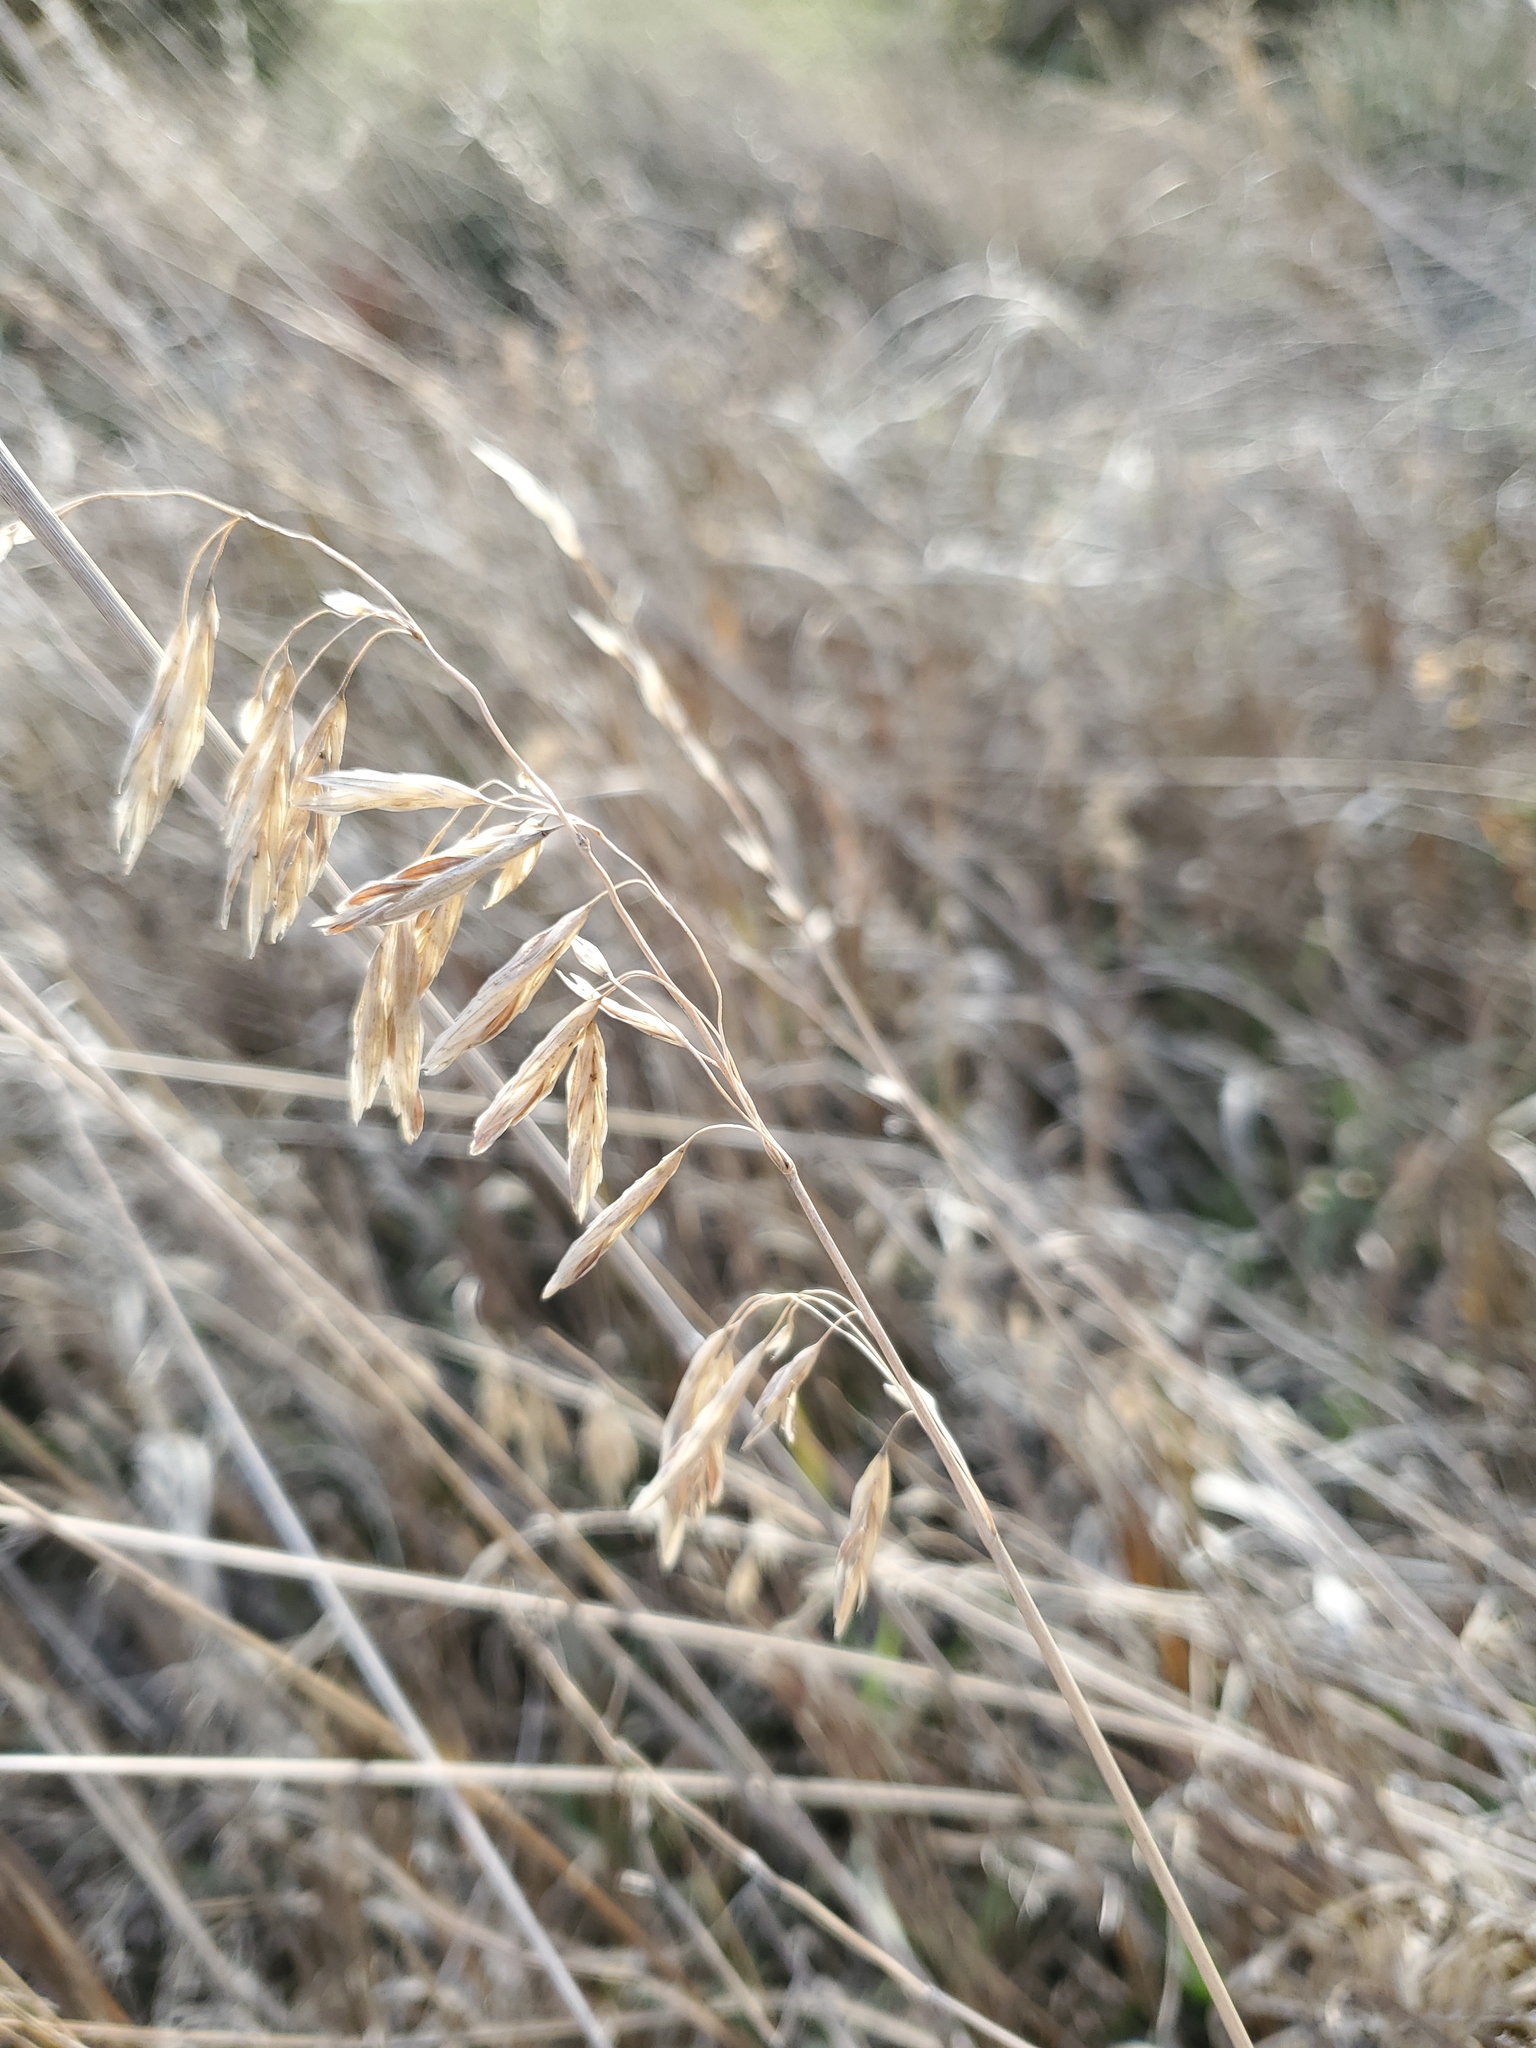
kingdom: Plantae
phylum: Tracheophyta
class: Liliopsida
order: Poales
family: Poaceae
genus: Bromus
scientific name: Bromus inermis
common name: Smooth brome
